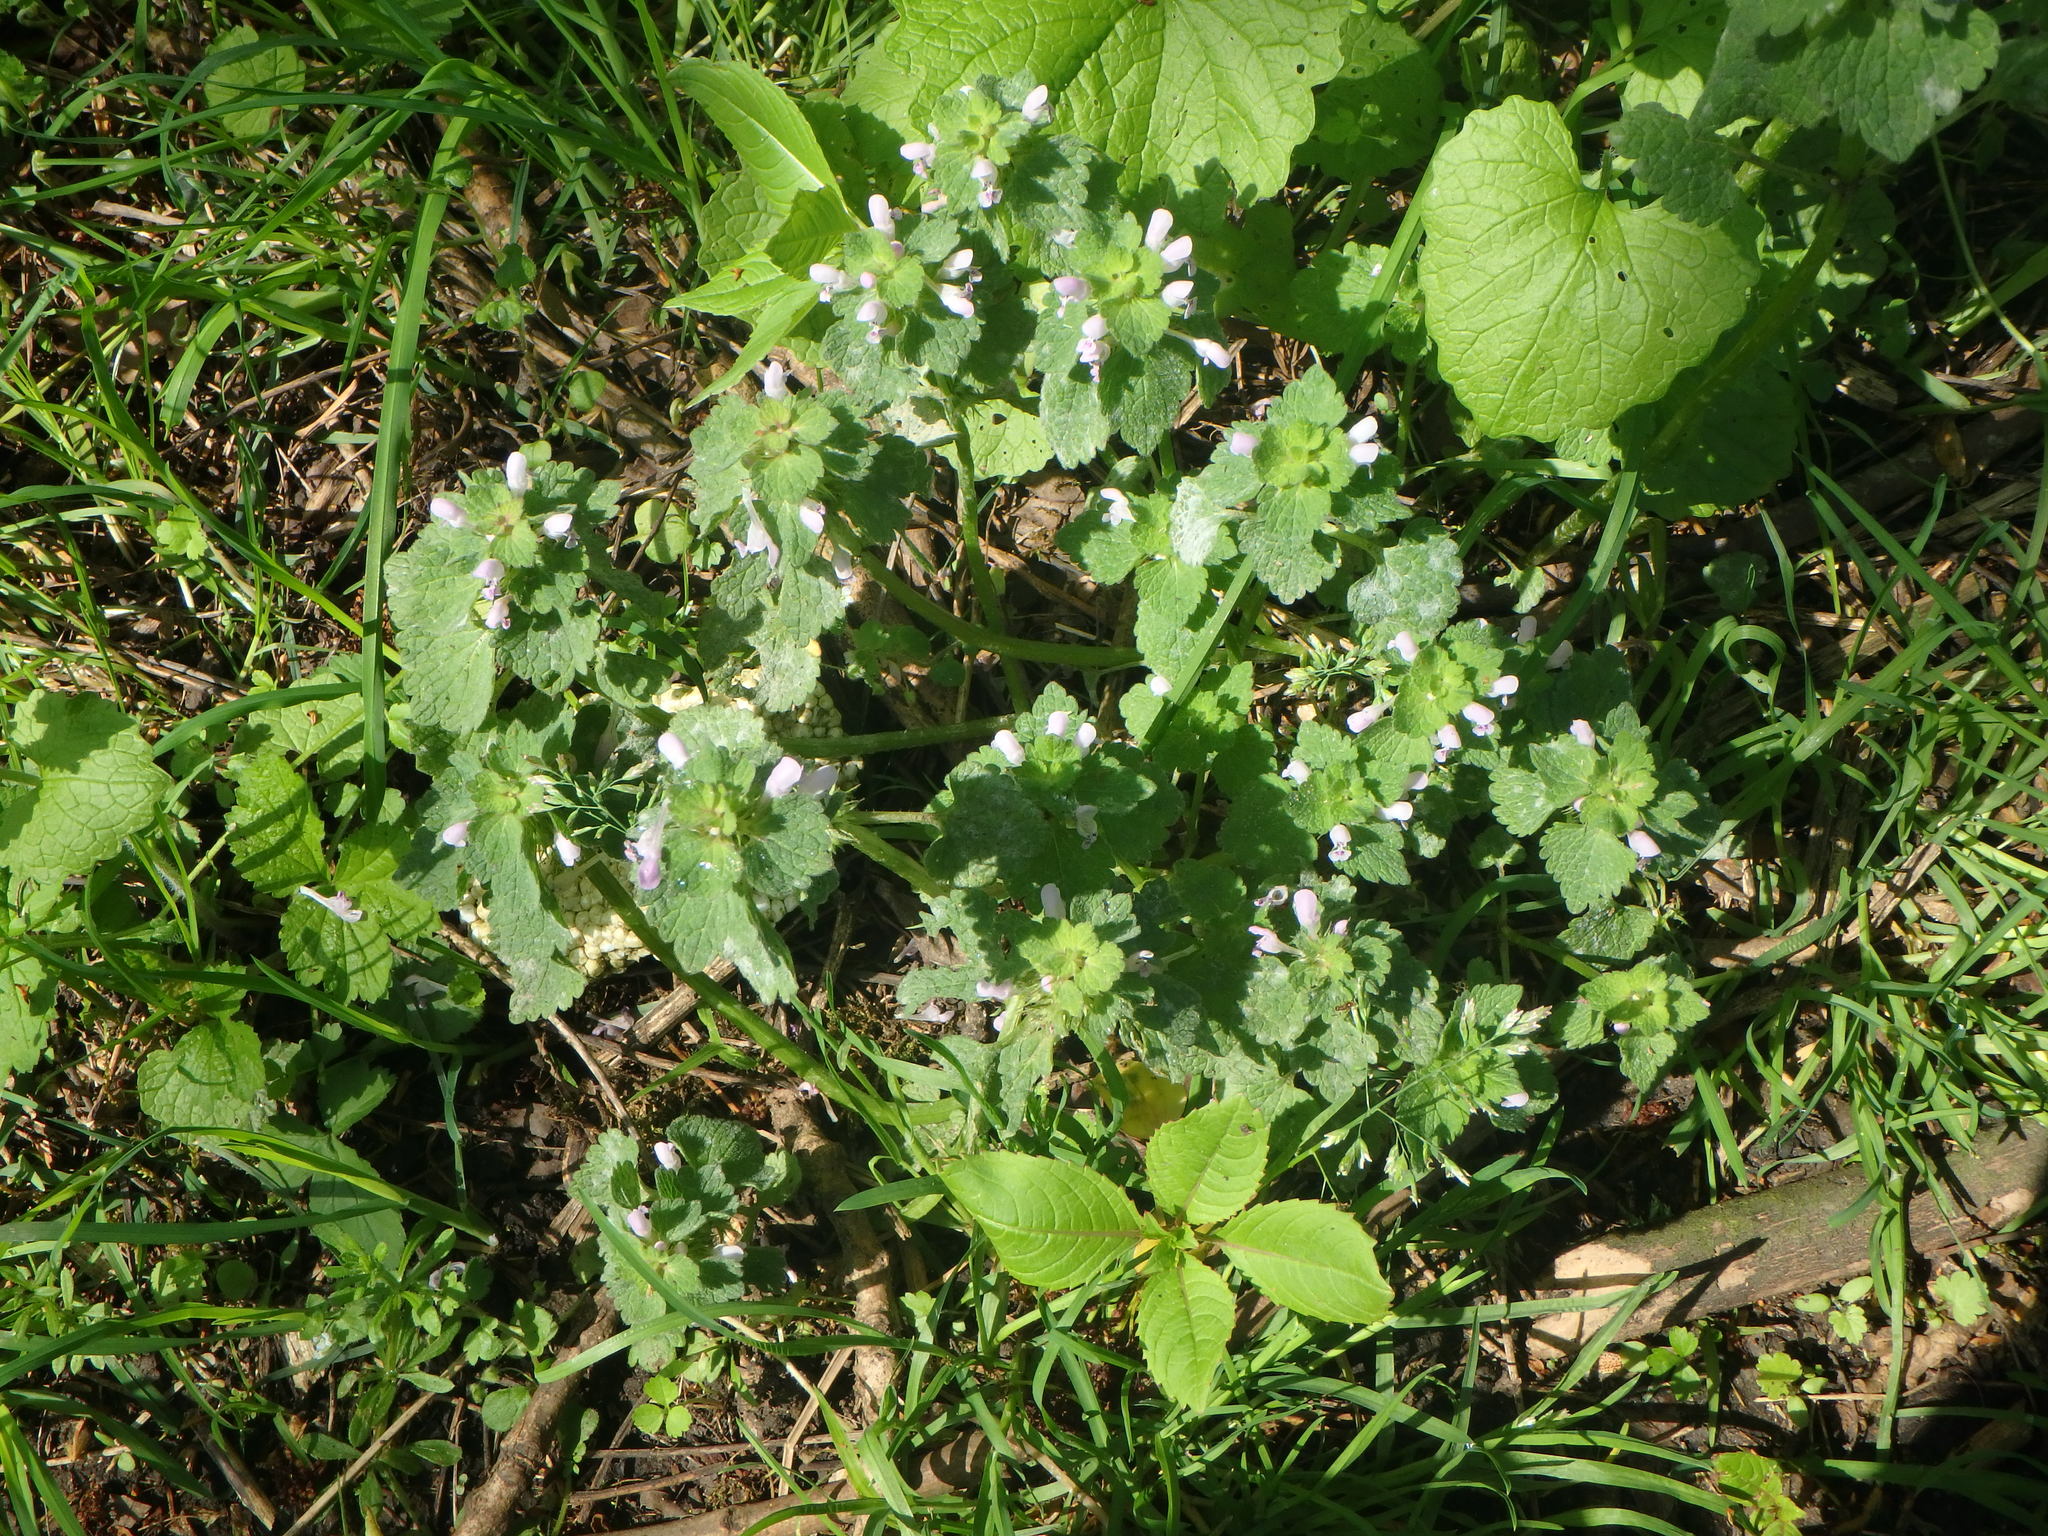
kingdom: Plantae
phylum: Tracheophyta
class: Magnoliopsida
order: Lamiales
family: Lamiaceae
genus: Lamium
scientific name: Lamium purpureum
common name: Red dead-nettle
